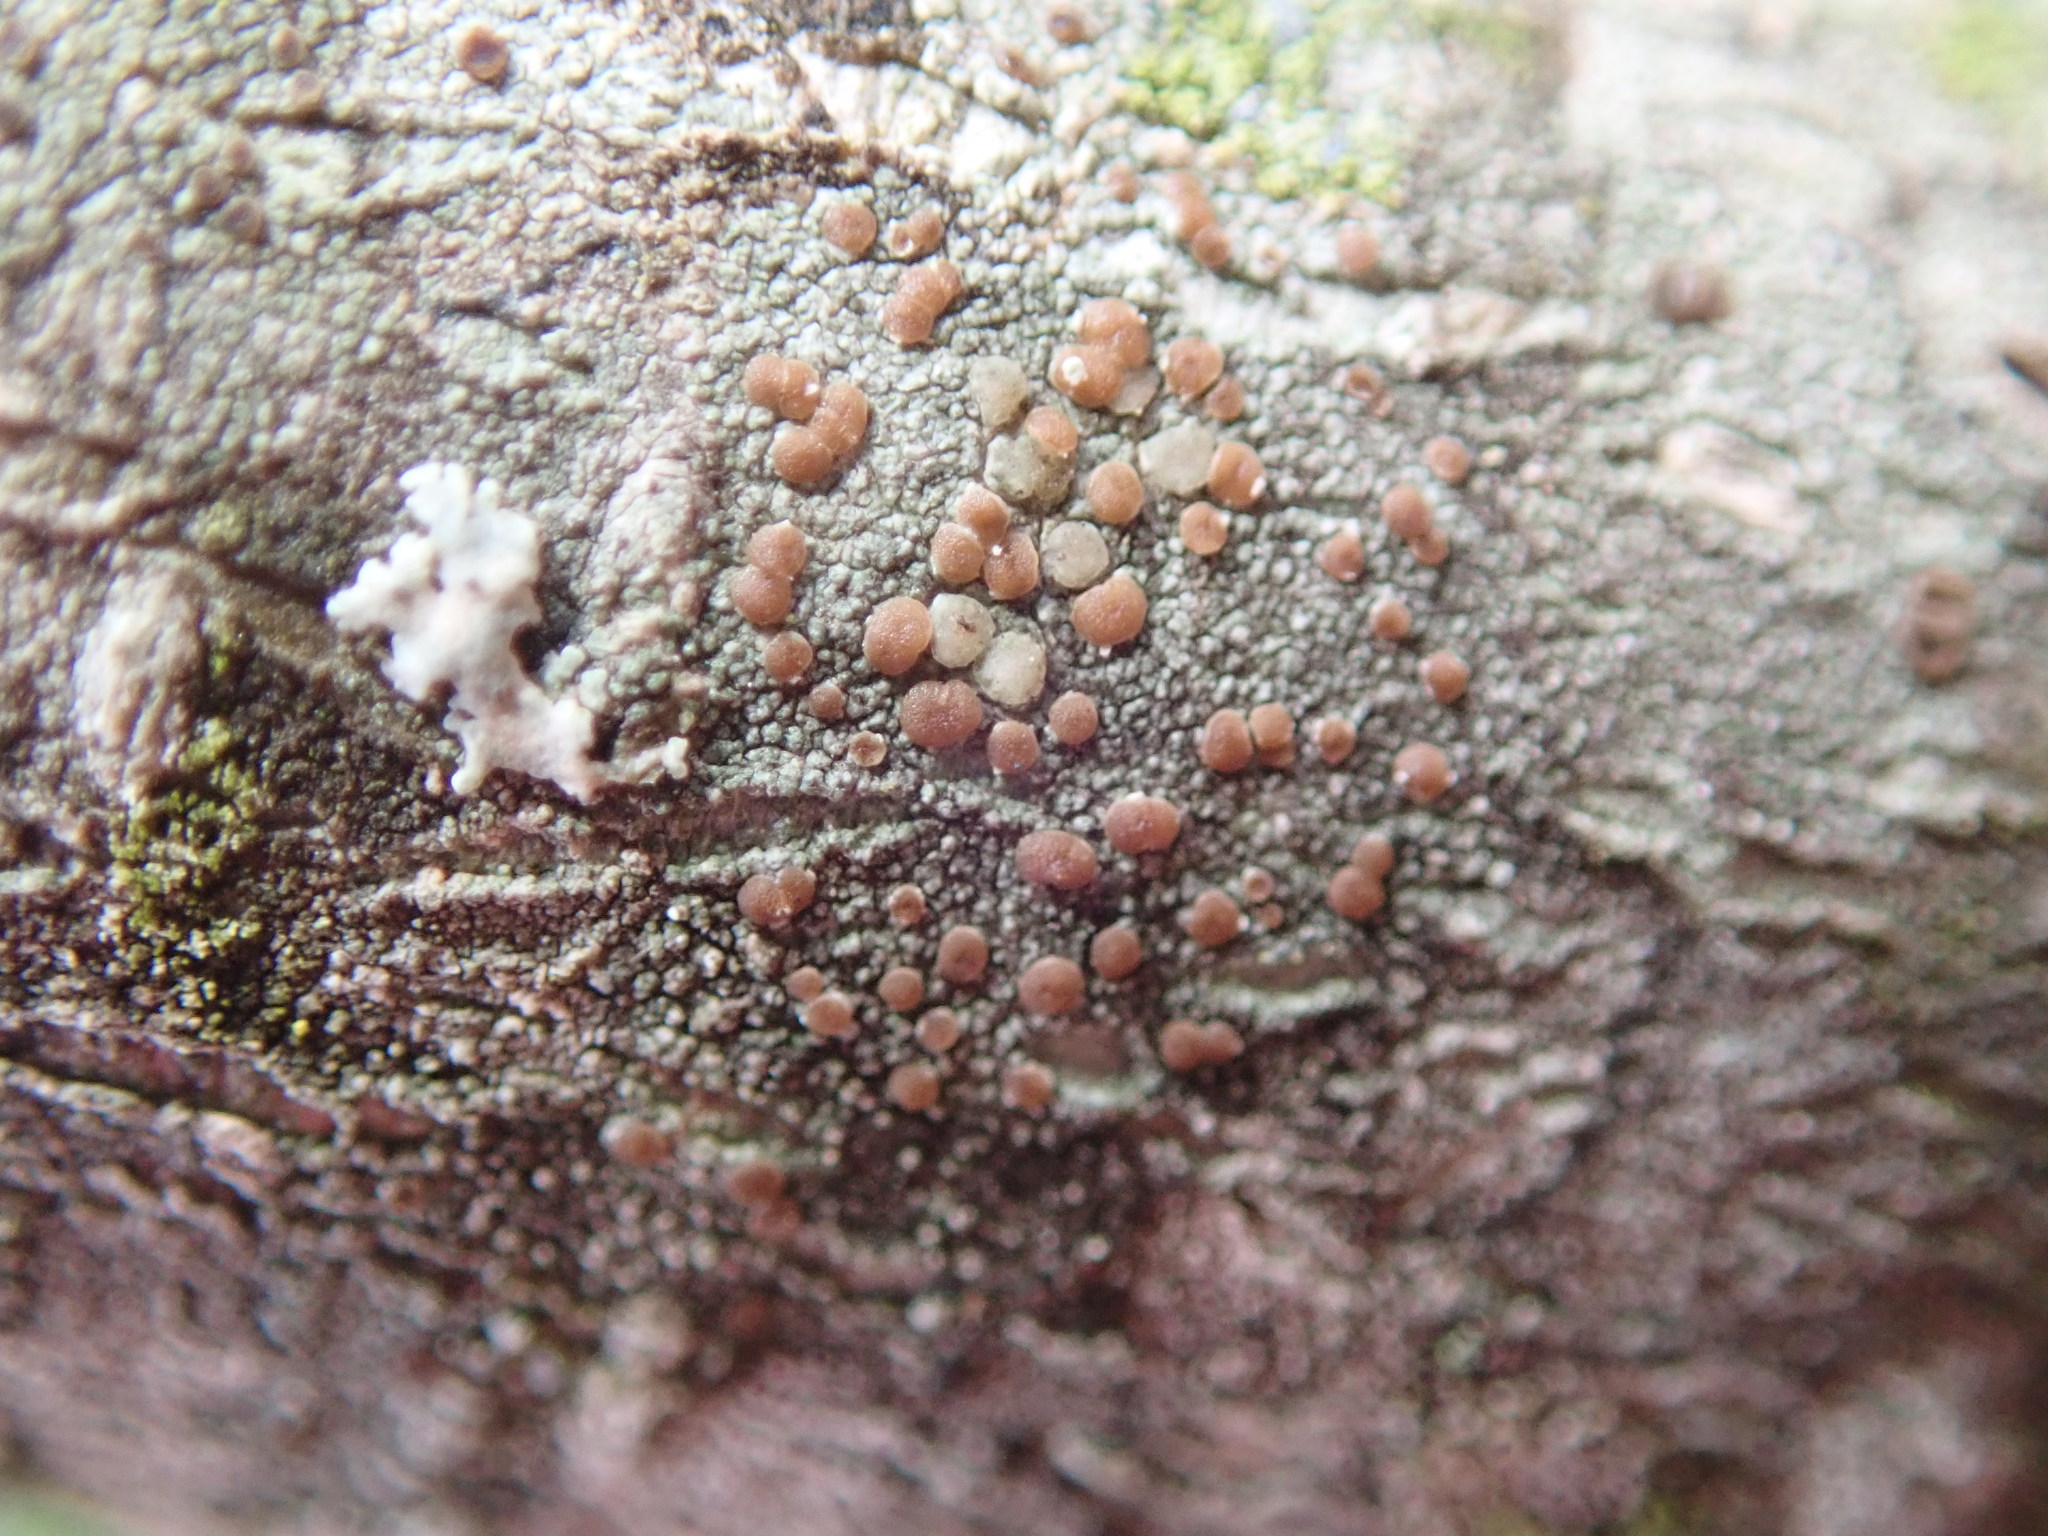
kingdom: Fungi
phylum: Ascomycota
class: Lecanoromycetes
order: Lecanorales
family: Lecanoraceae
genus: Traponora
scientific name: Traponora varians
